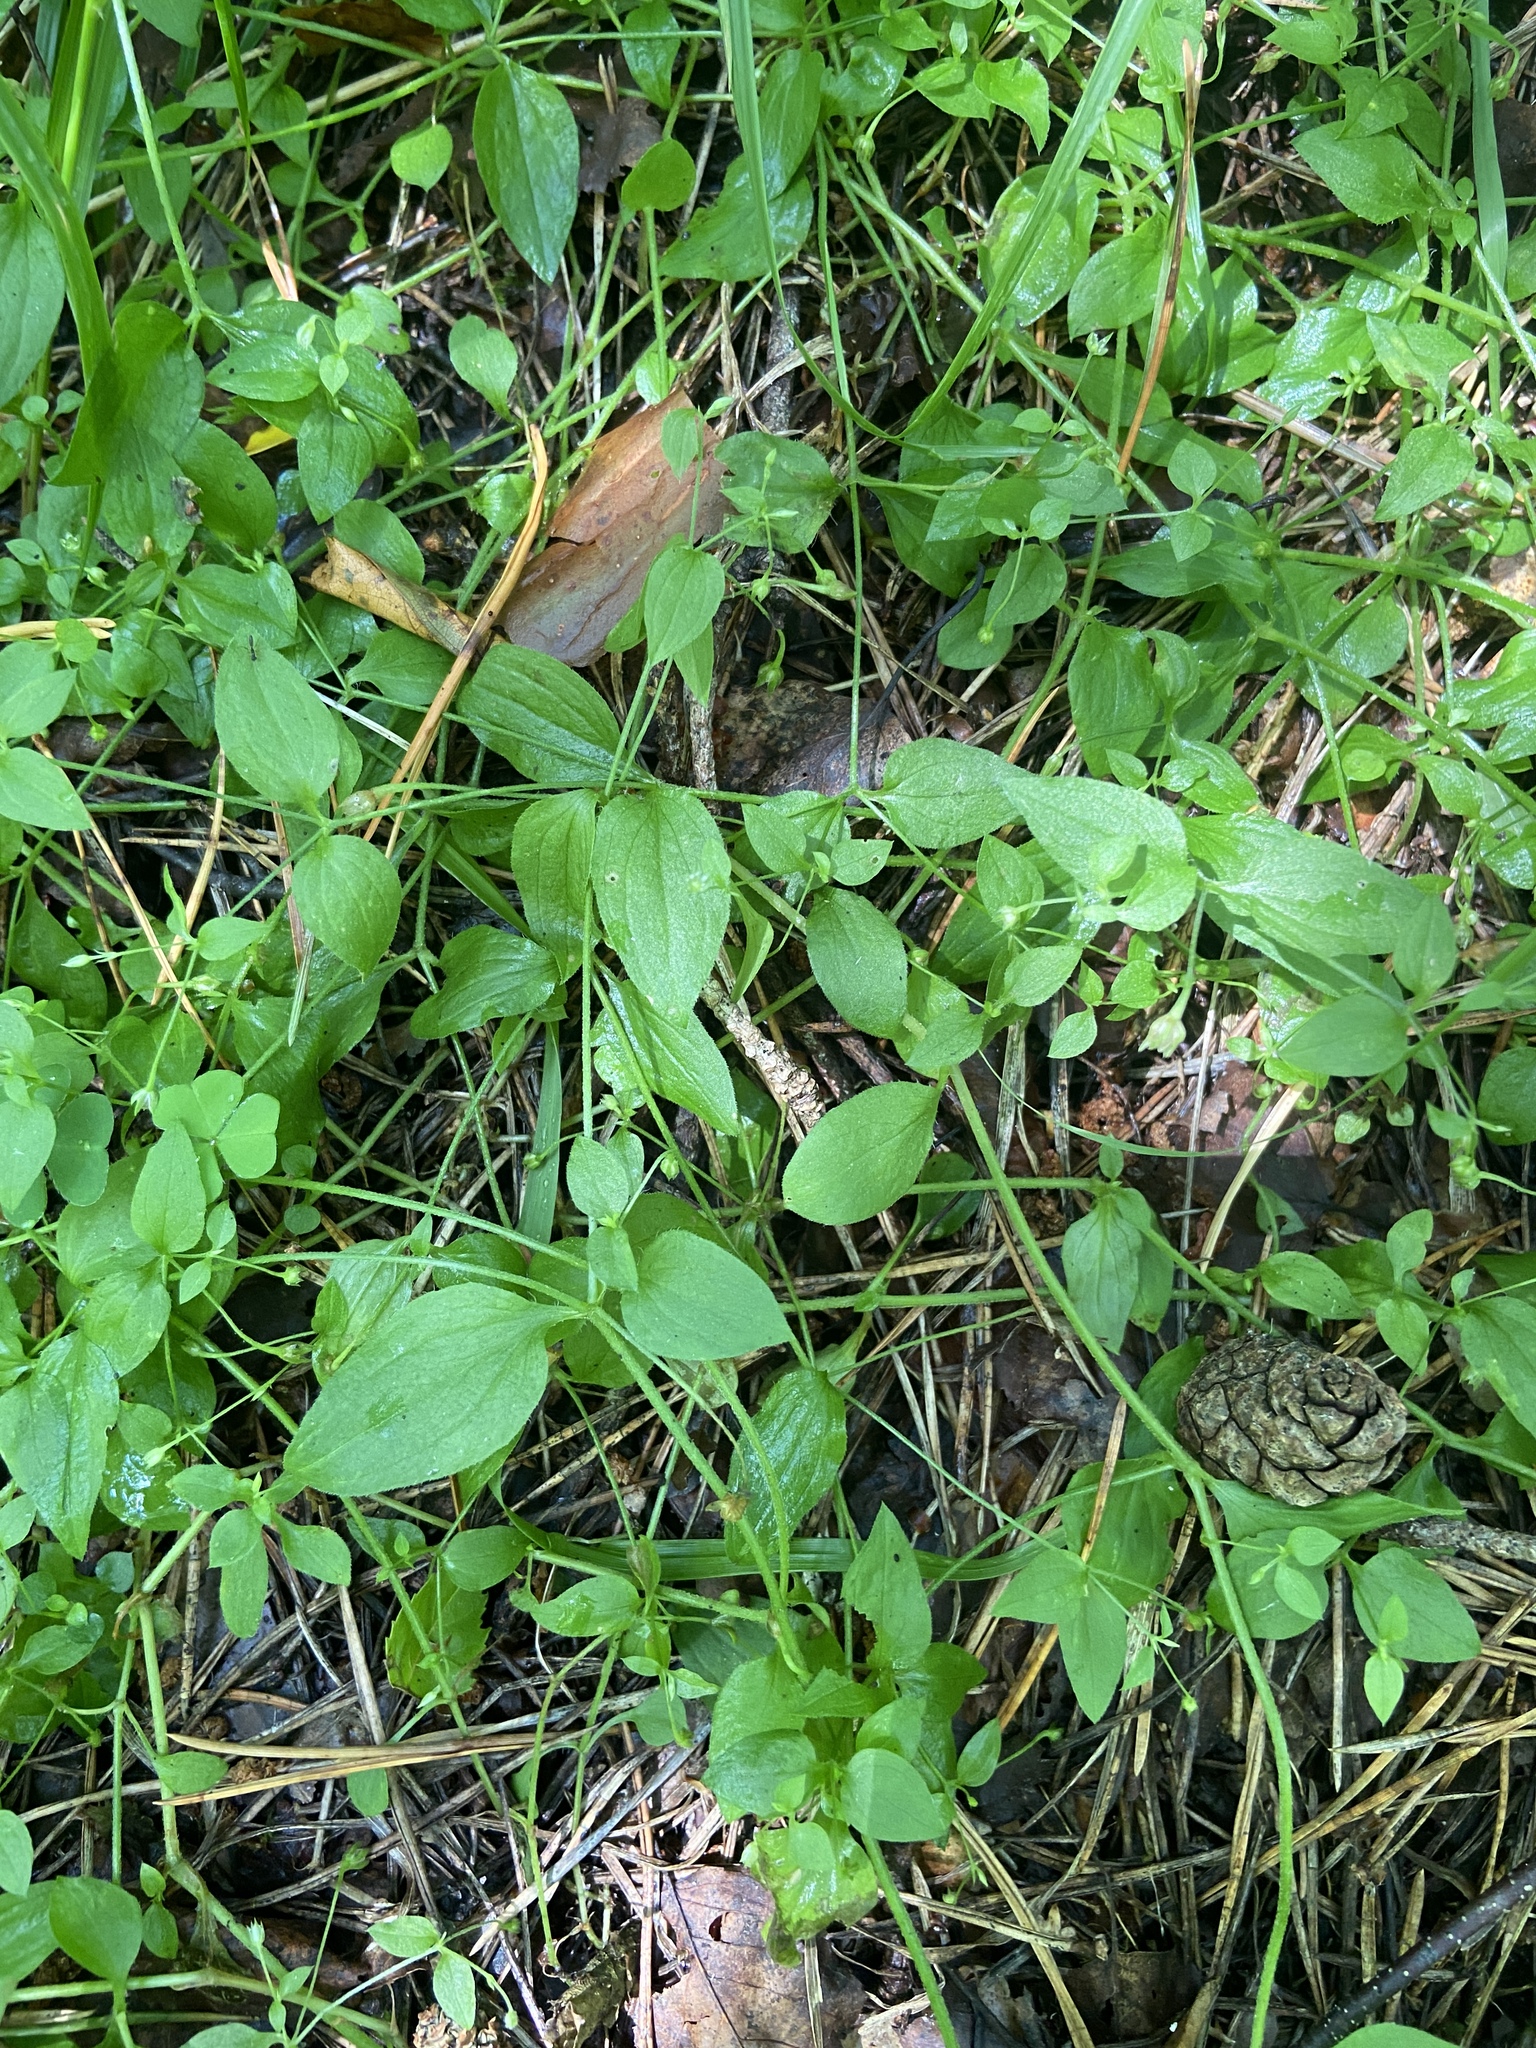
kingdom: Plantae
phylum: Tracheophyta
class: Magnoliopsida
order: Caryophyllales
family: Caryophyllaceae
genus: Moehringia
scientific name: Moehringia trinervia
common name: Three-nerved sandwort
